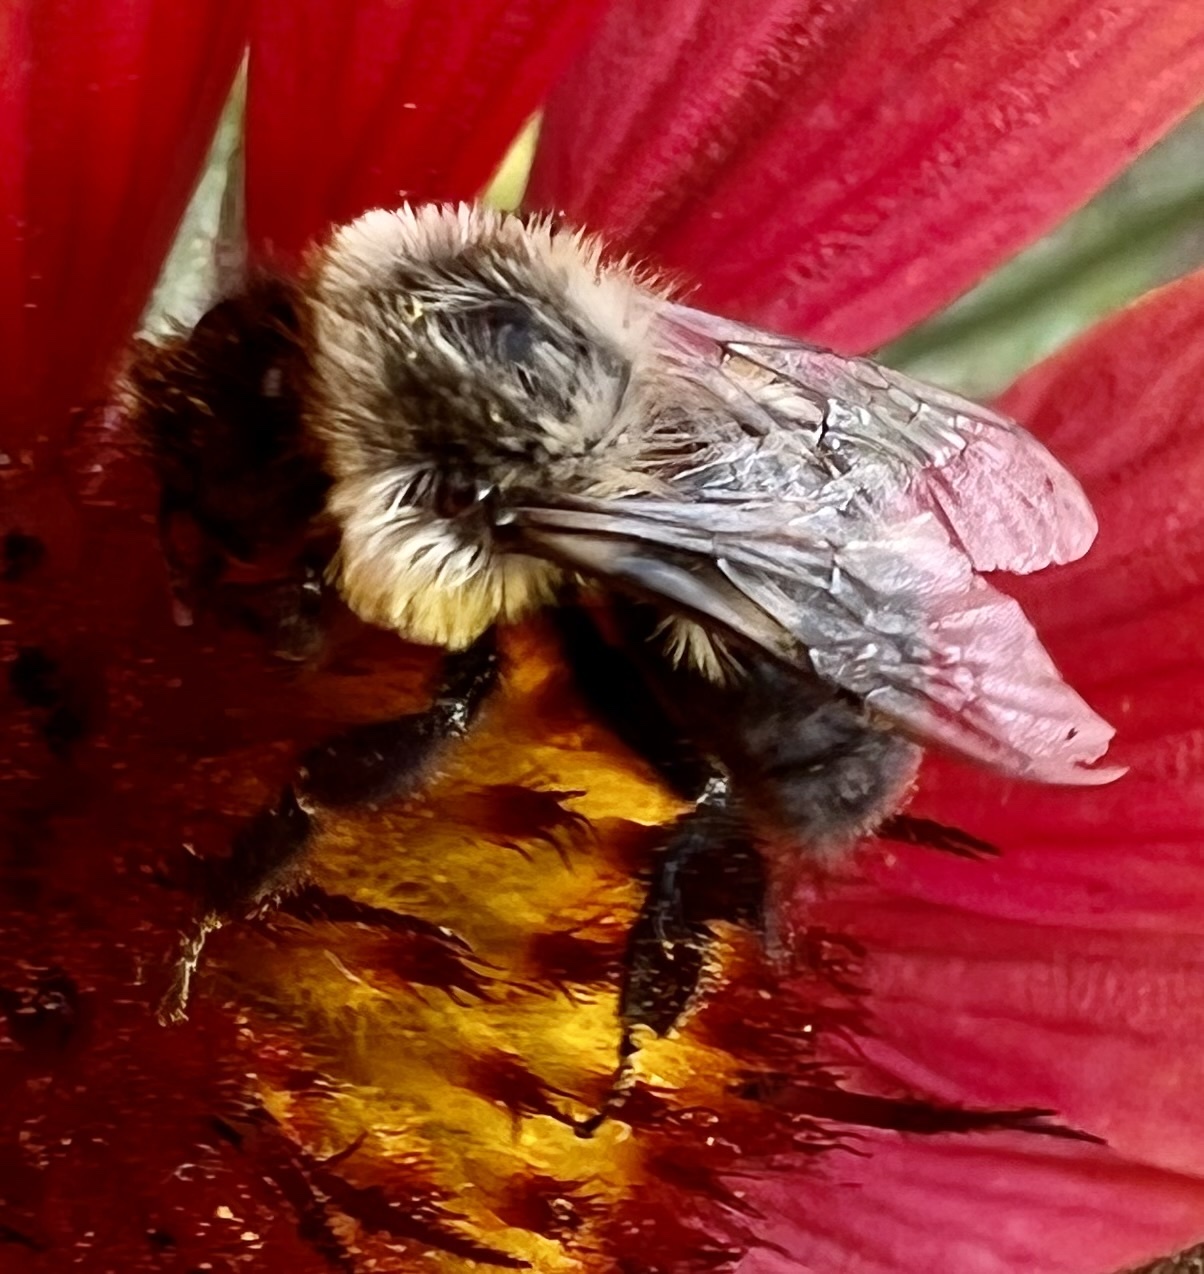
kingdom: Animalia
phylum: Arthropoda
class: Insecta
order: Hymenoptera
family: Apidae
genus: Bombus
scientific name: Bombus impatiens
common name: Common eastern bumble bee
